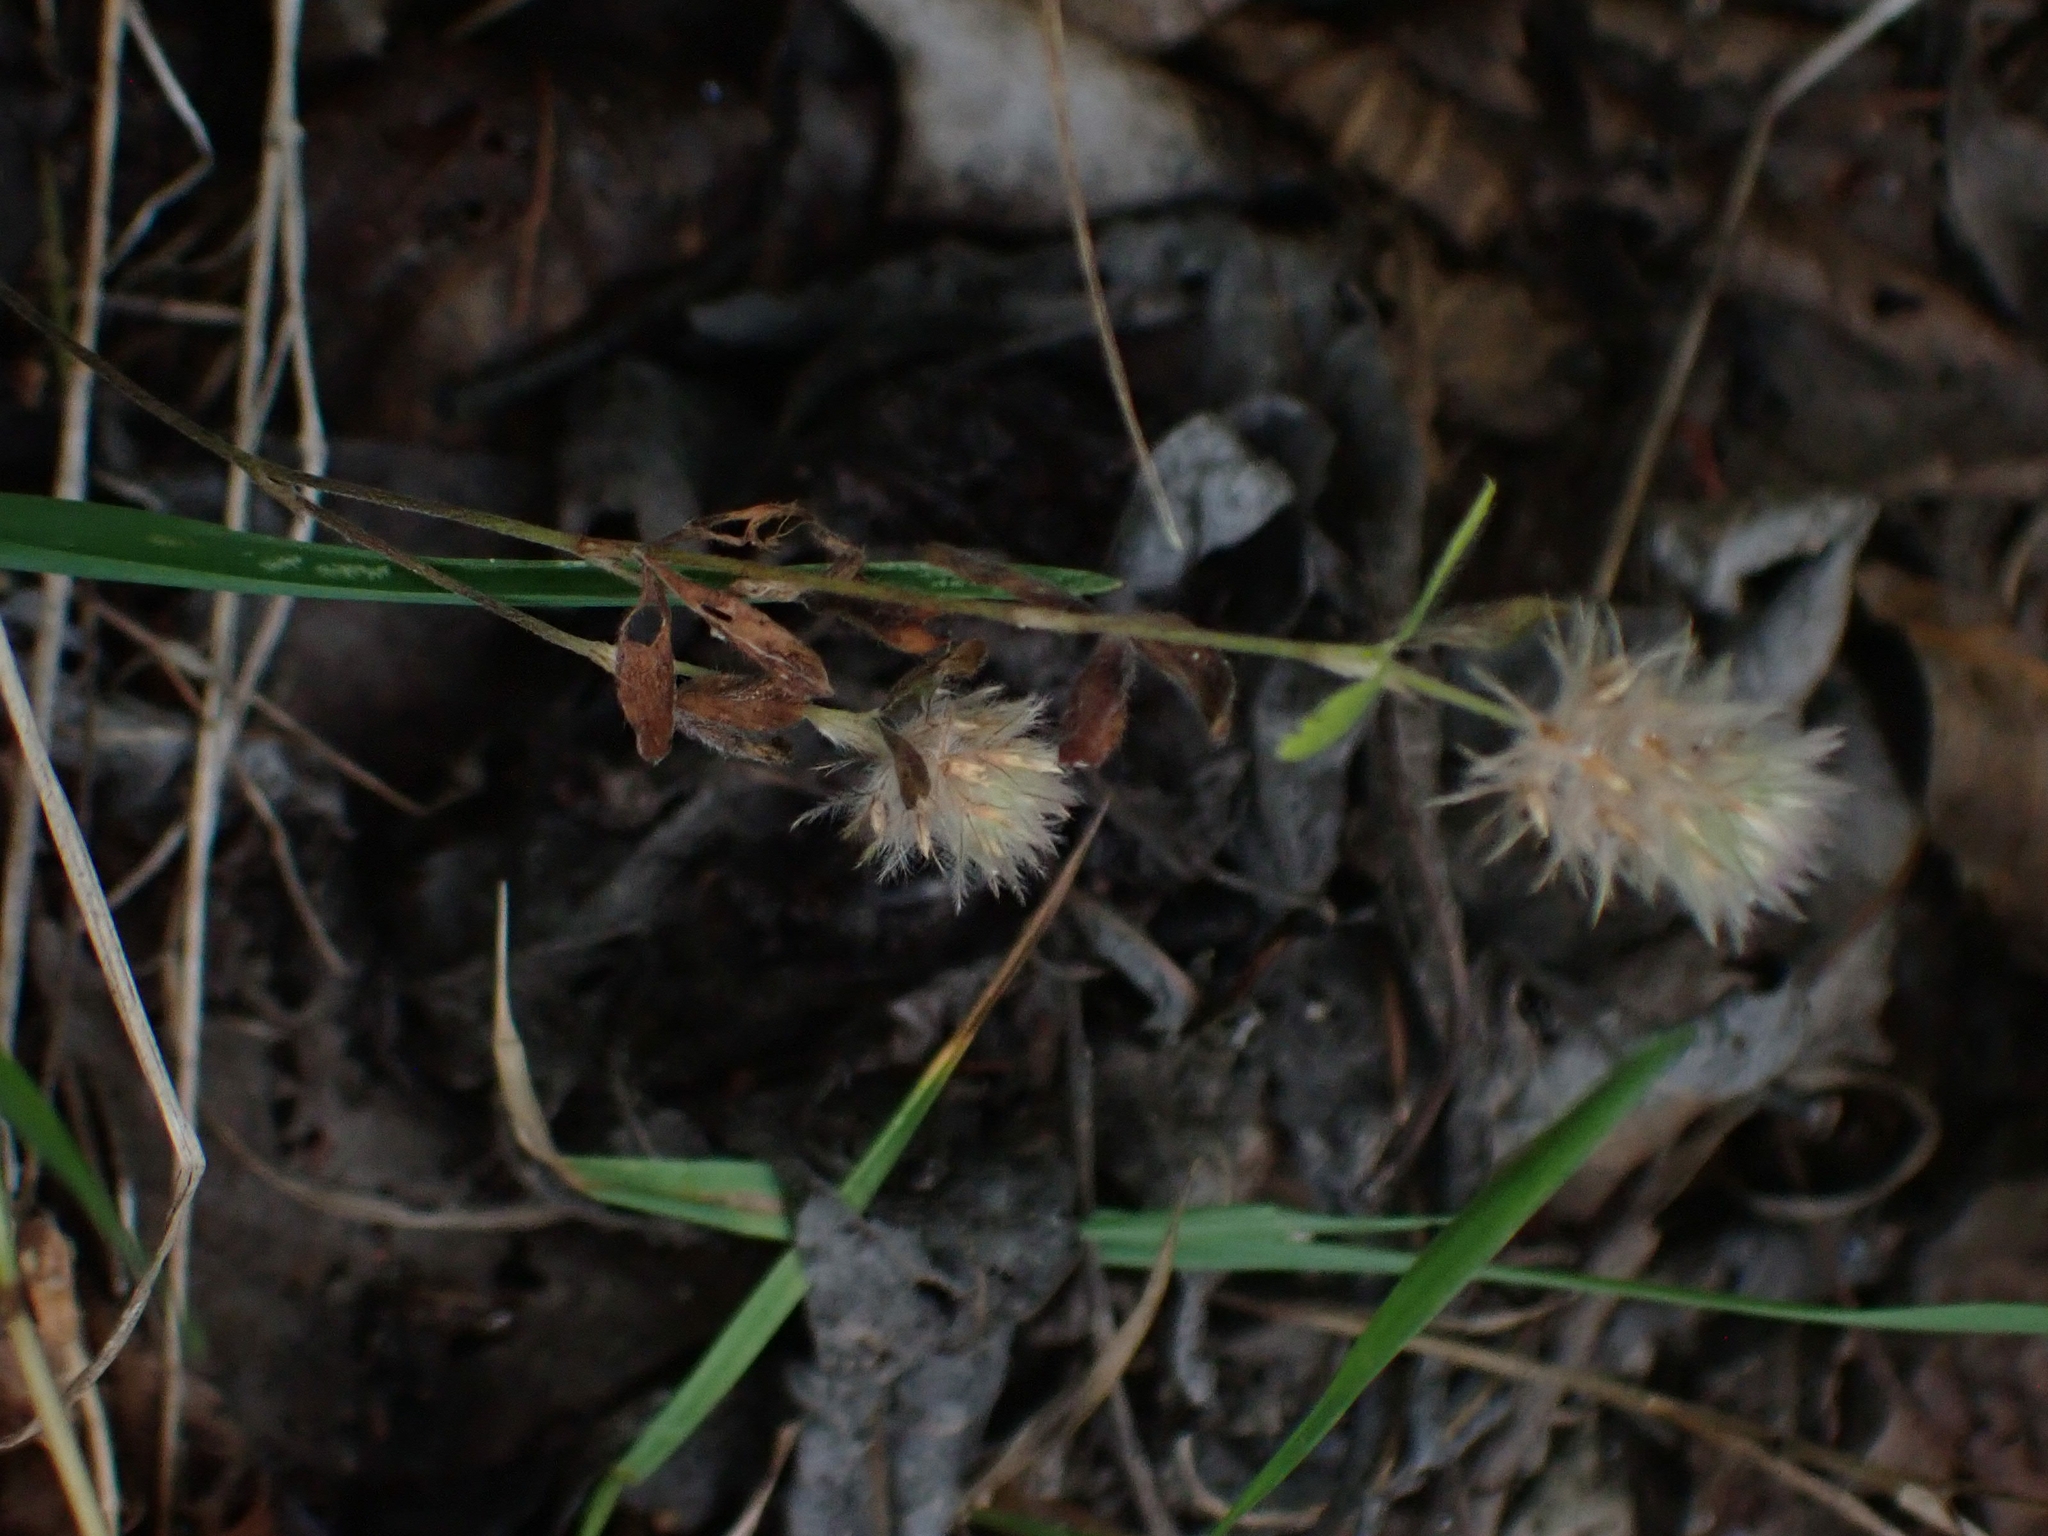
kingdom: Plantae
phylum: Tracheophyta
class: Magnoliopsida
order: Fabales
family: Fabaceae
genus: Trifolium
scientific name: Trifolium arvense
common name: Hare's-foot clover
